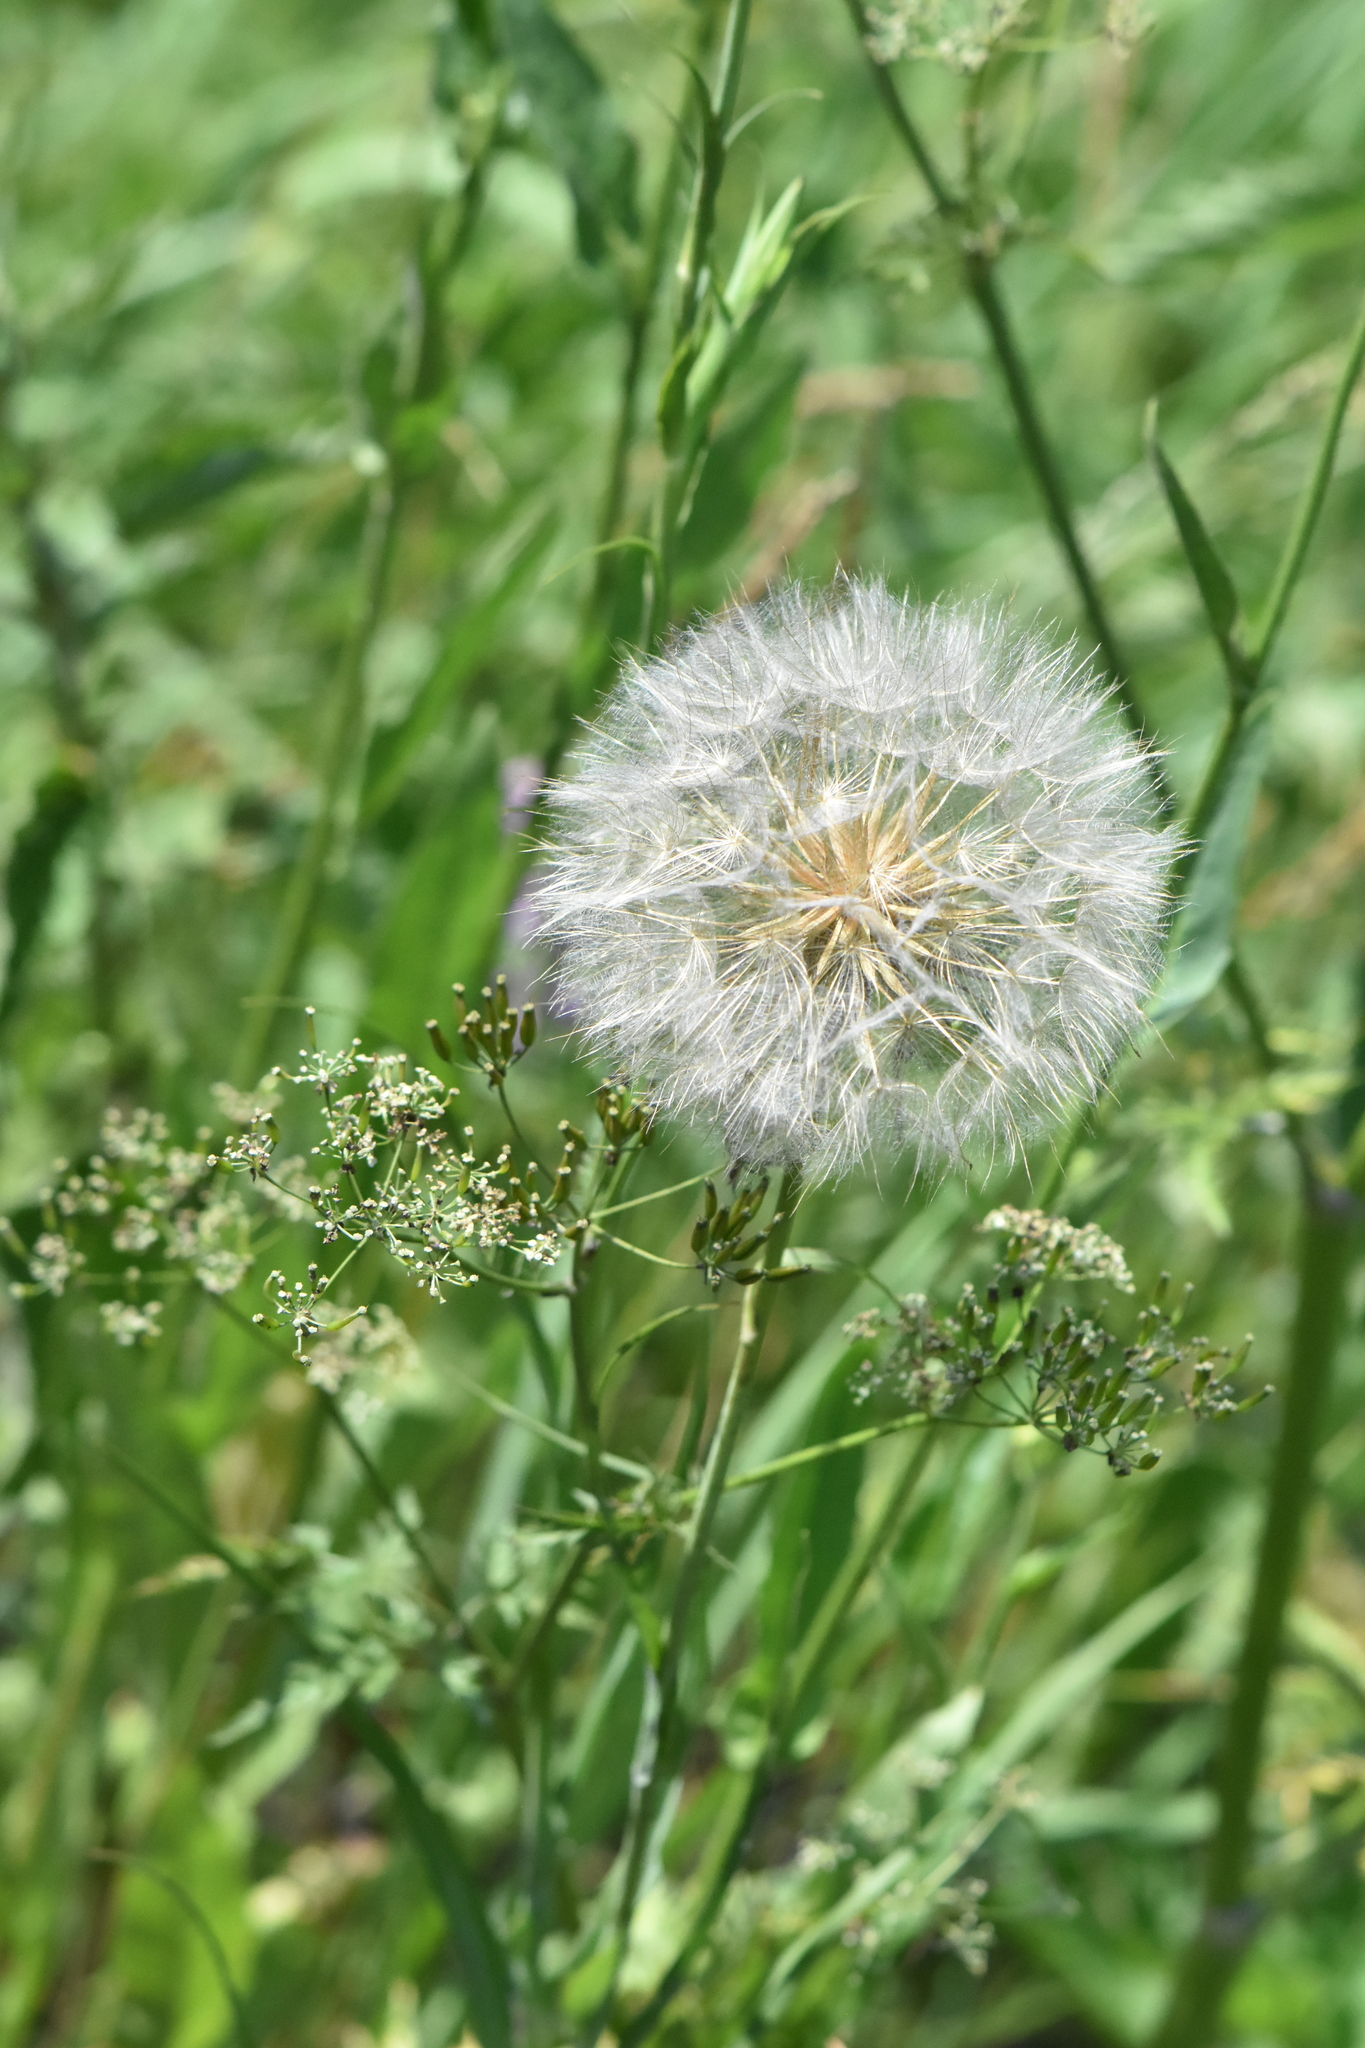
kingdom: Plantae
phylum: Tracheophyta
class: Magnoliopsida
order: Asterales
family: Asteraceae
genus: Tragopogon
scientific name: Tragopogon pratensis
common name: Goat's-beard
